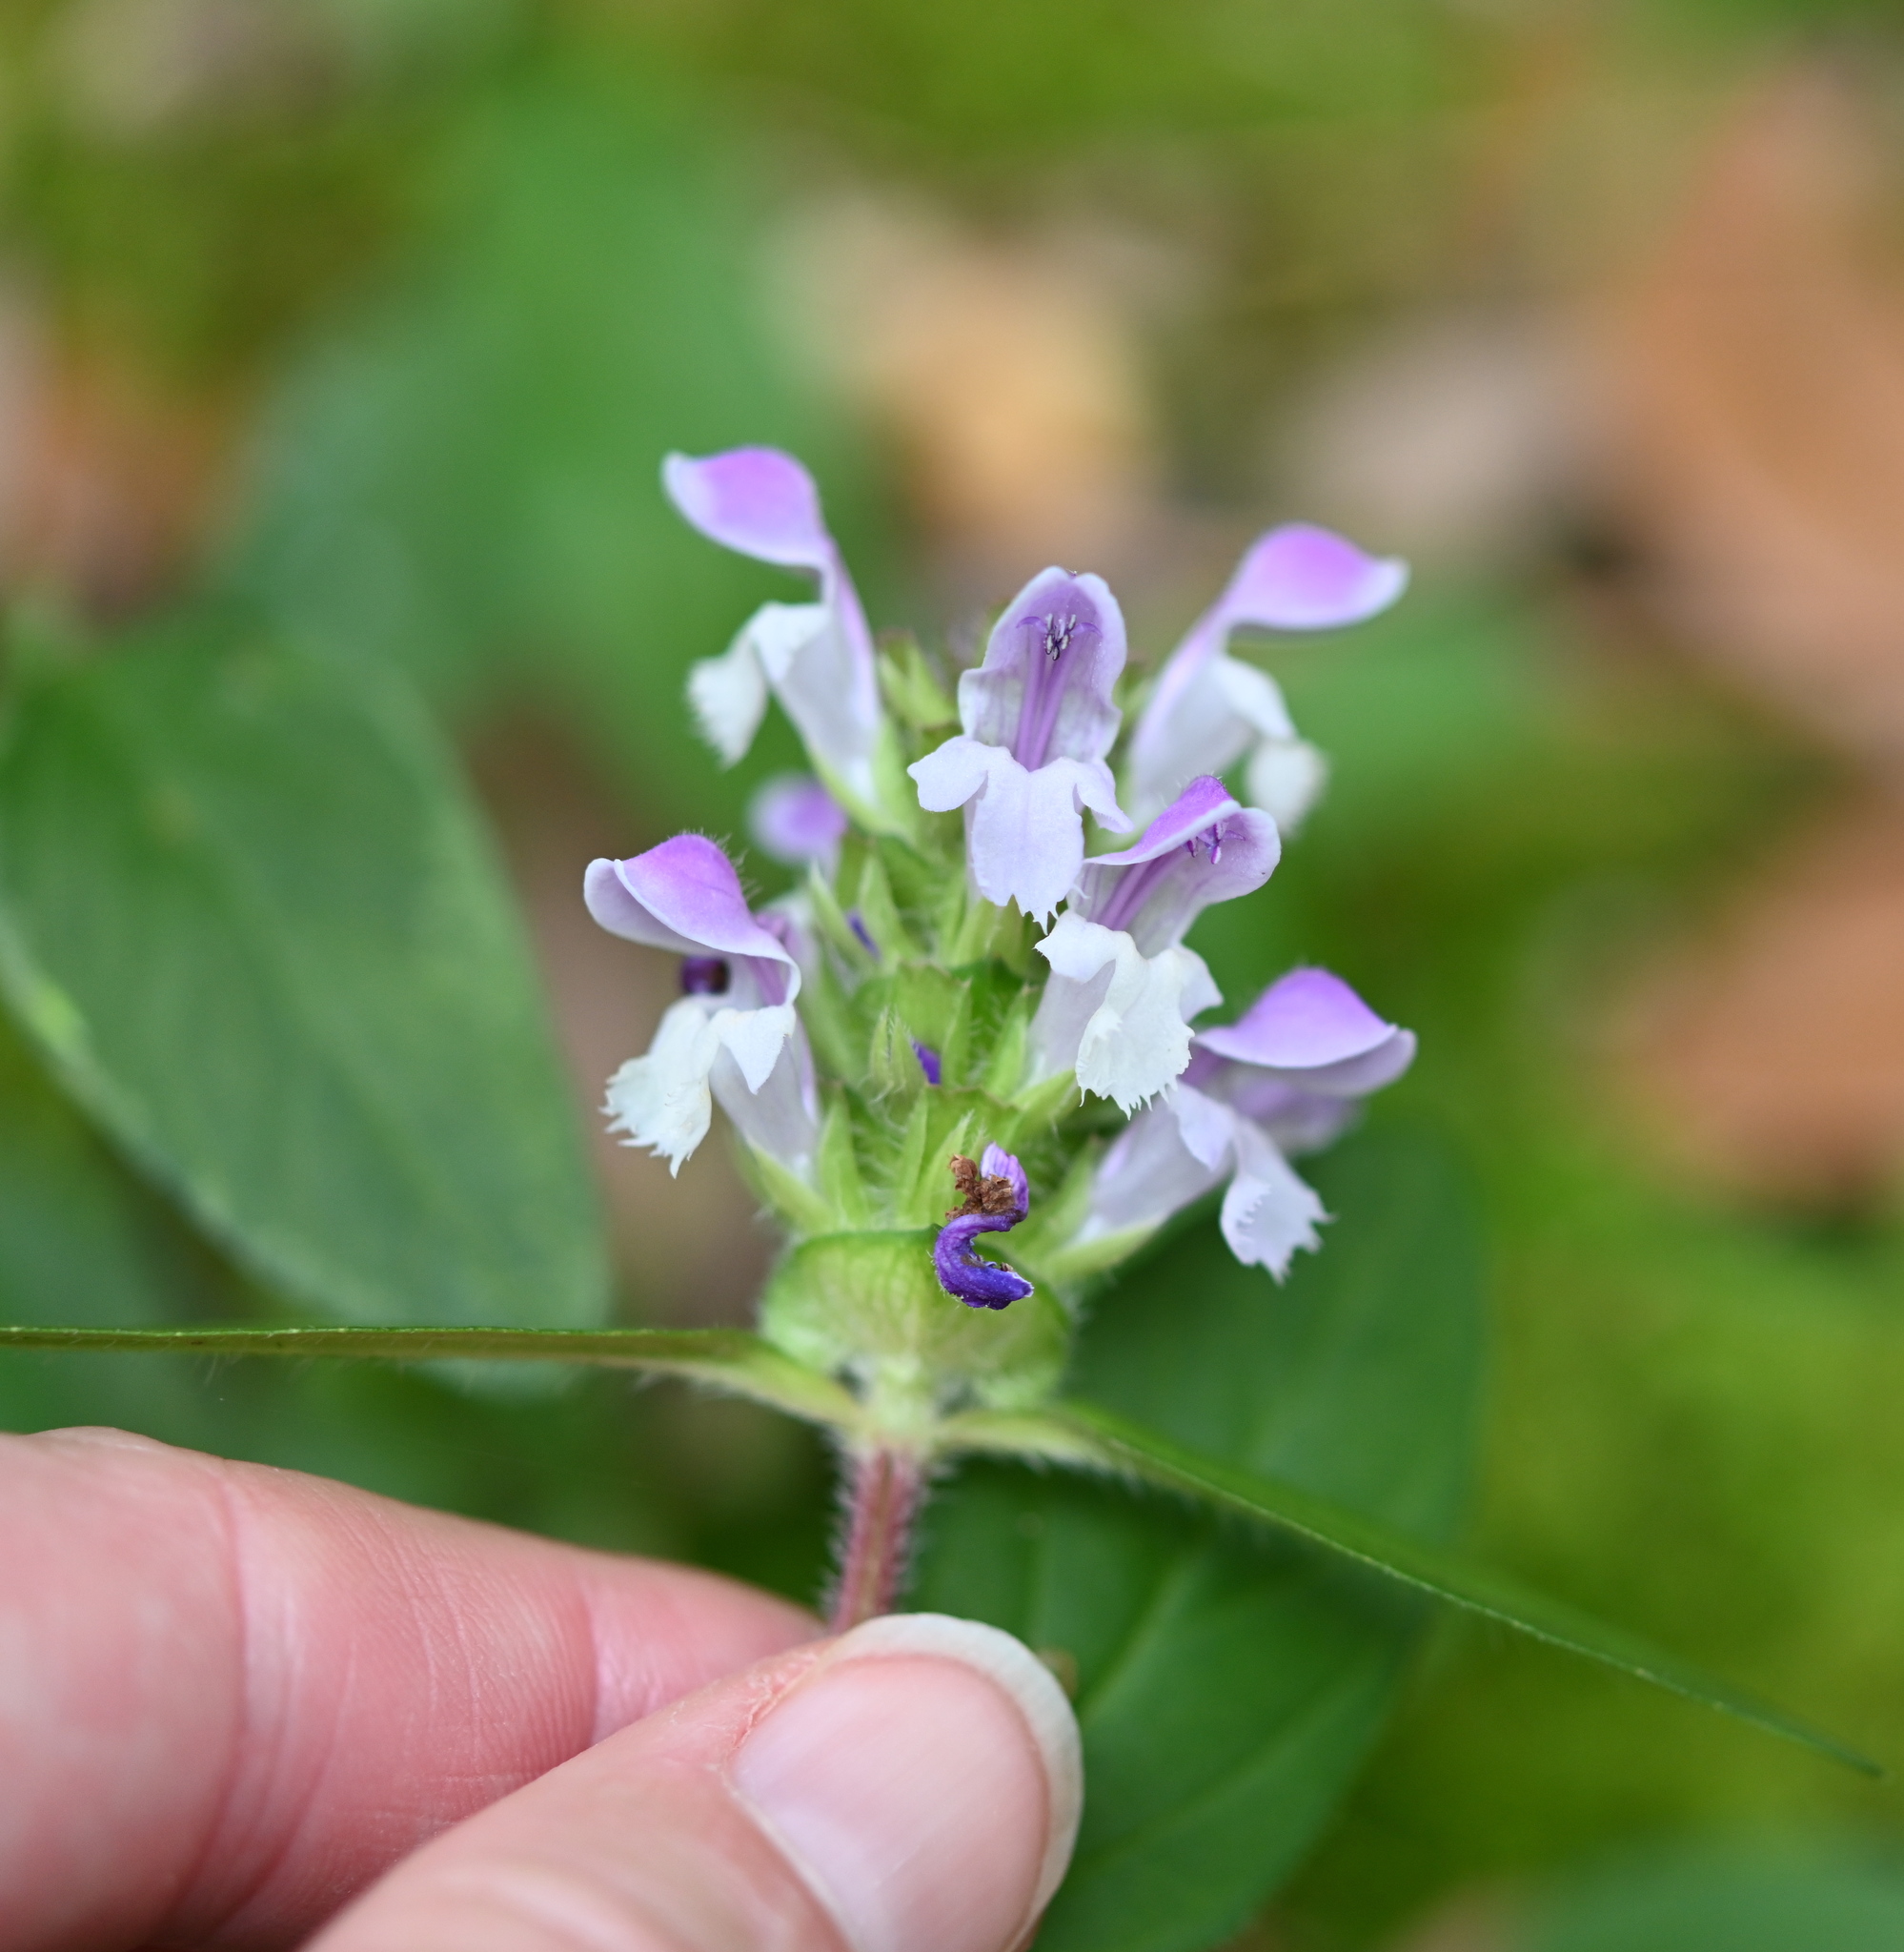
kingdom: Plantae
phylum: Tracheophyta
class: Magnoliopsida
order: Lamiales
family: Lamiaceae
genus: Prunella
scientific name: Prunella vulgaris
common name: Heal-all
